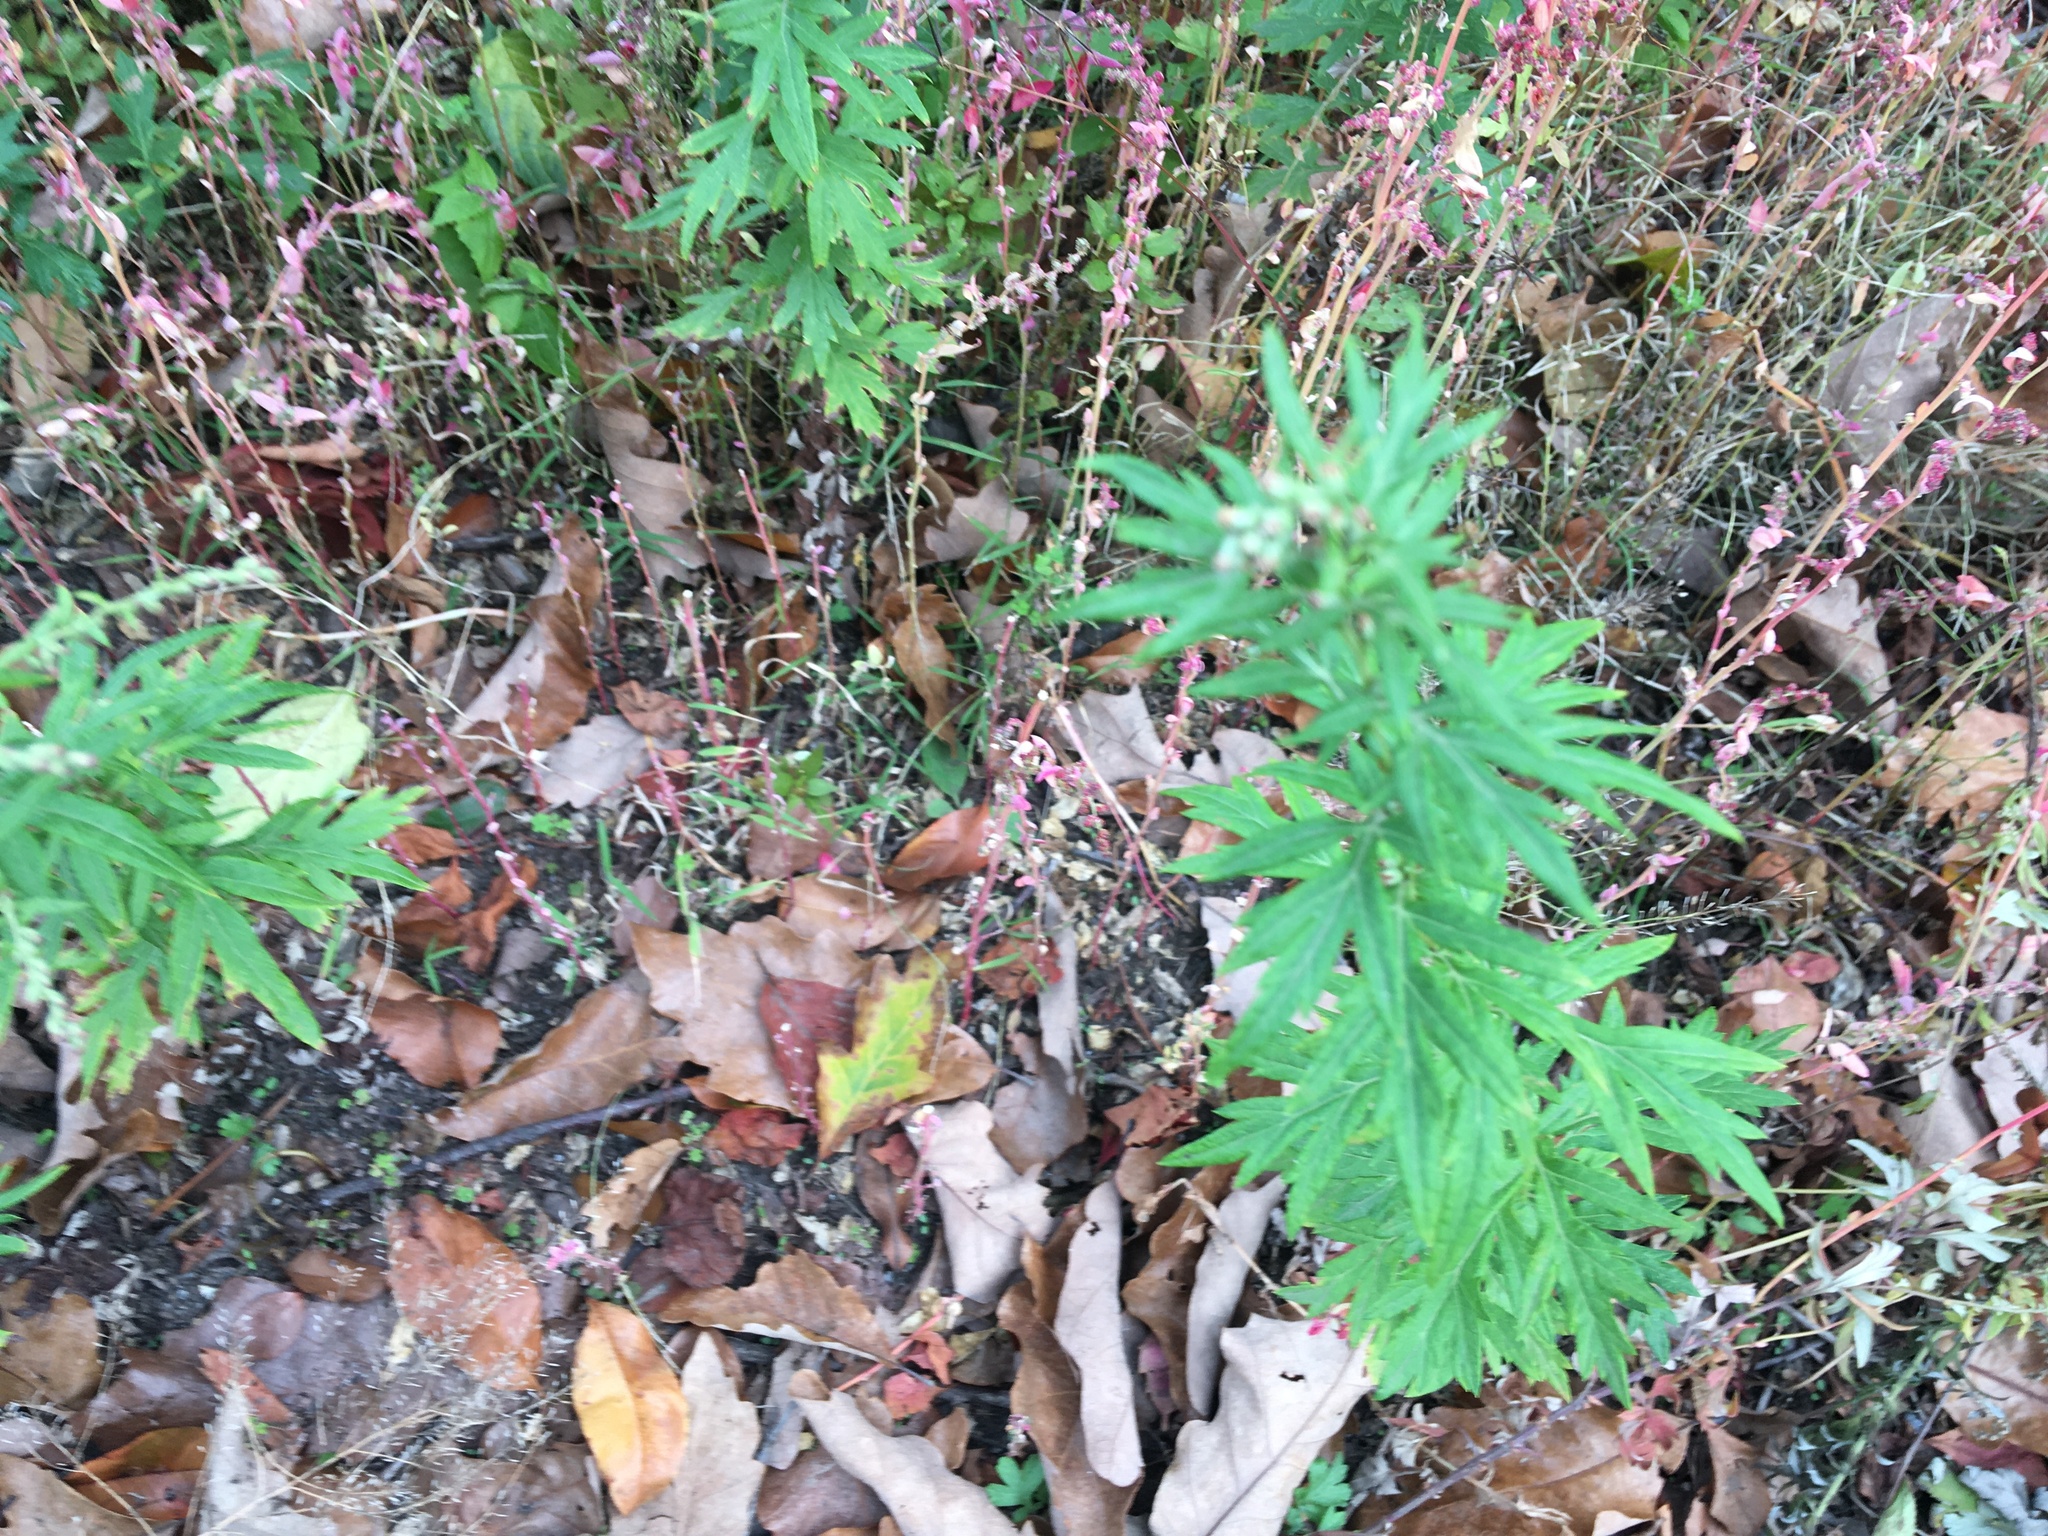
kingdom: Plantae
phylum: Tracheophyta
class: Magnoliopsida
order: Asterales
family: Asteraceae
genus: Artemisia
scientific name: Artemisia vulgaris
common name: Mugwort
